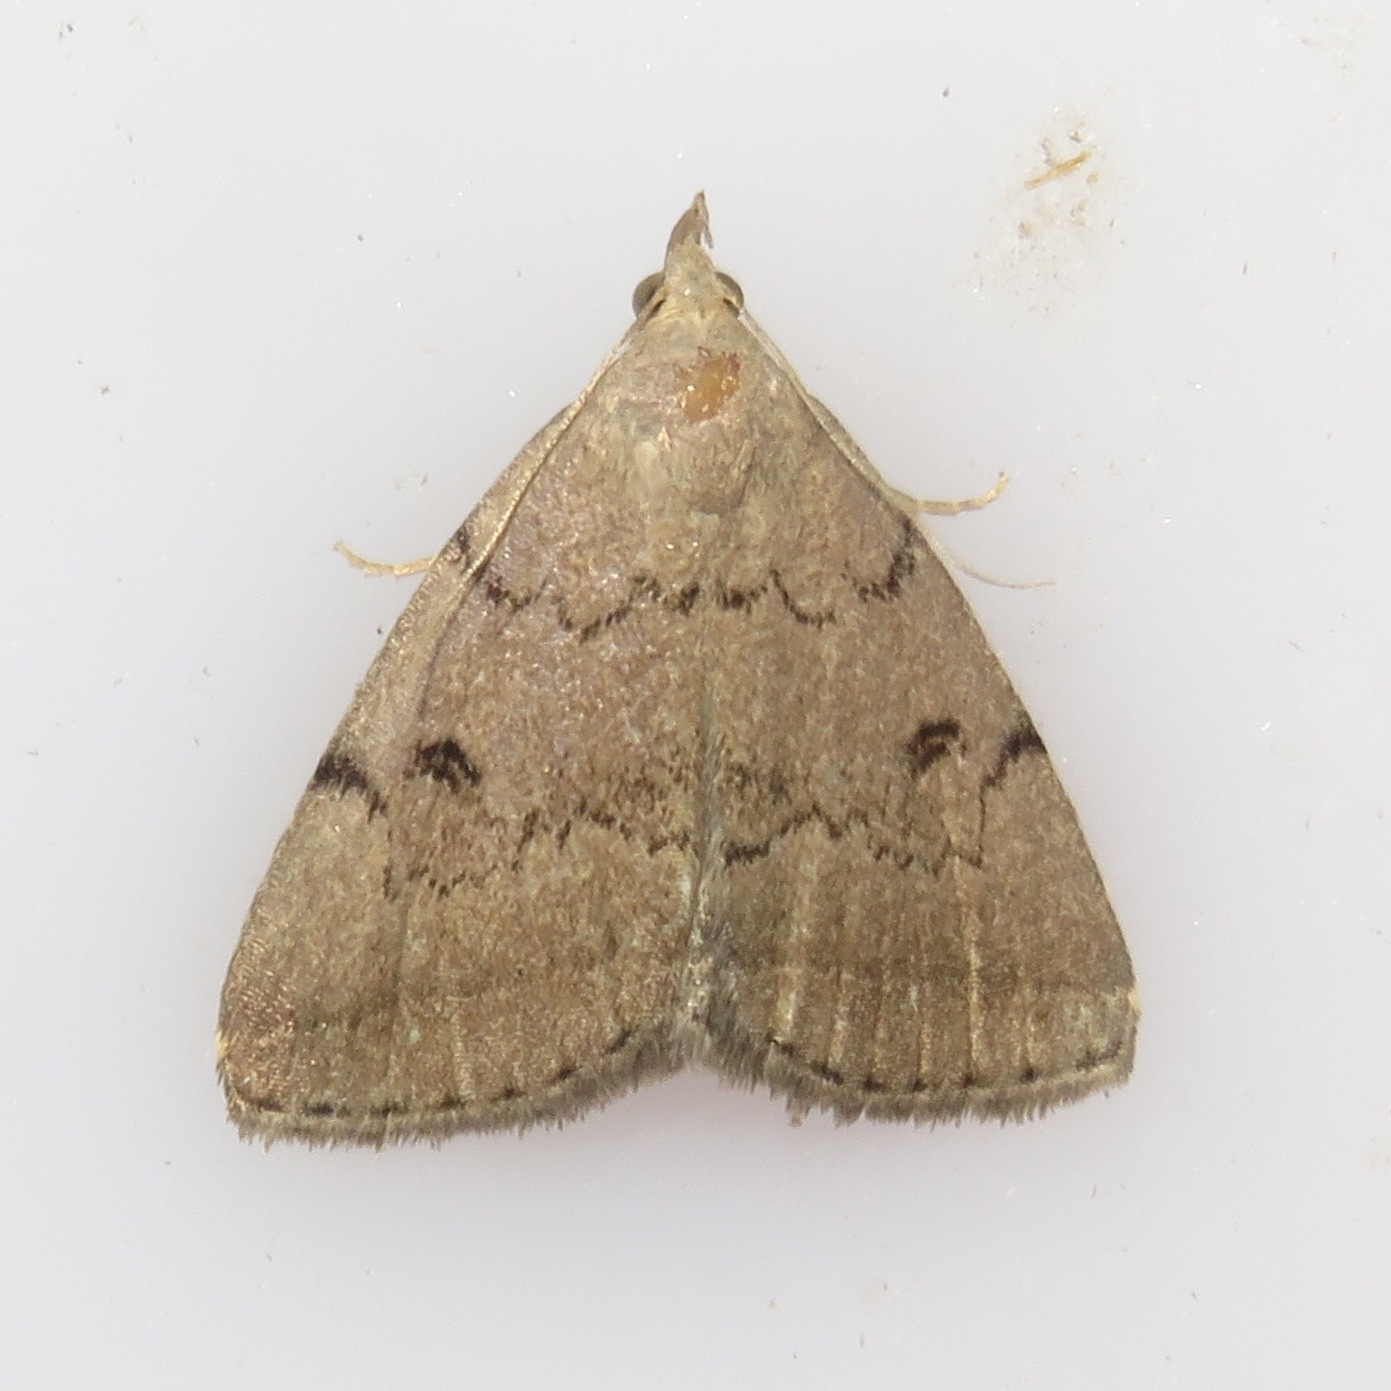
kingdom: Animalia
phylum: Arthropoda
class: Insecta
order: Lepidoptera
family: Erebidae
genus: Zanclognatha
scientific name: Zanclognatha dentata
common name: Toothed fan-foot
